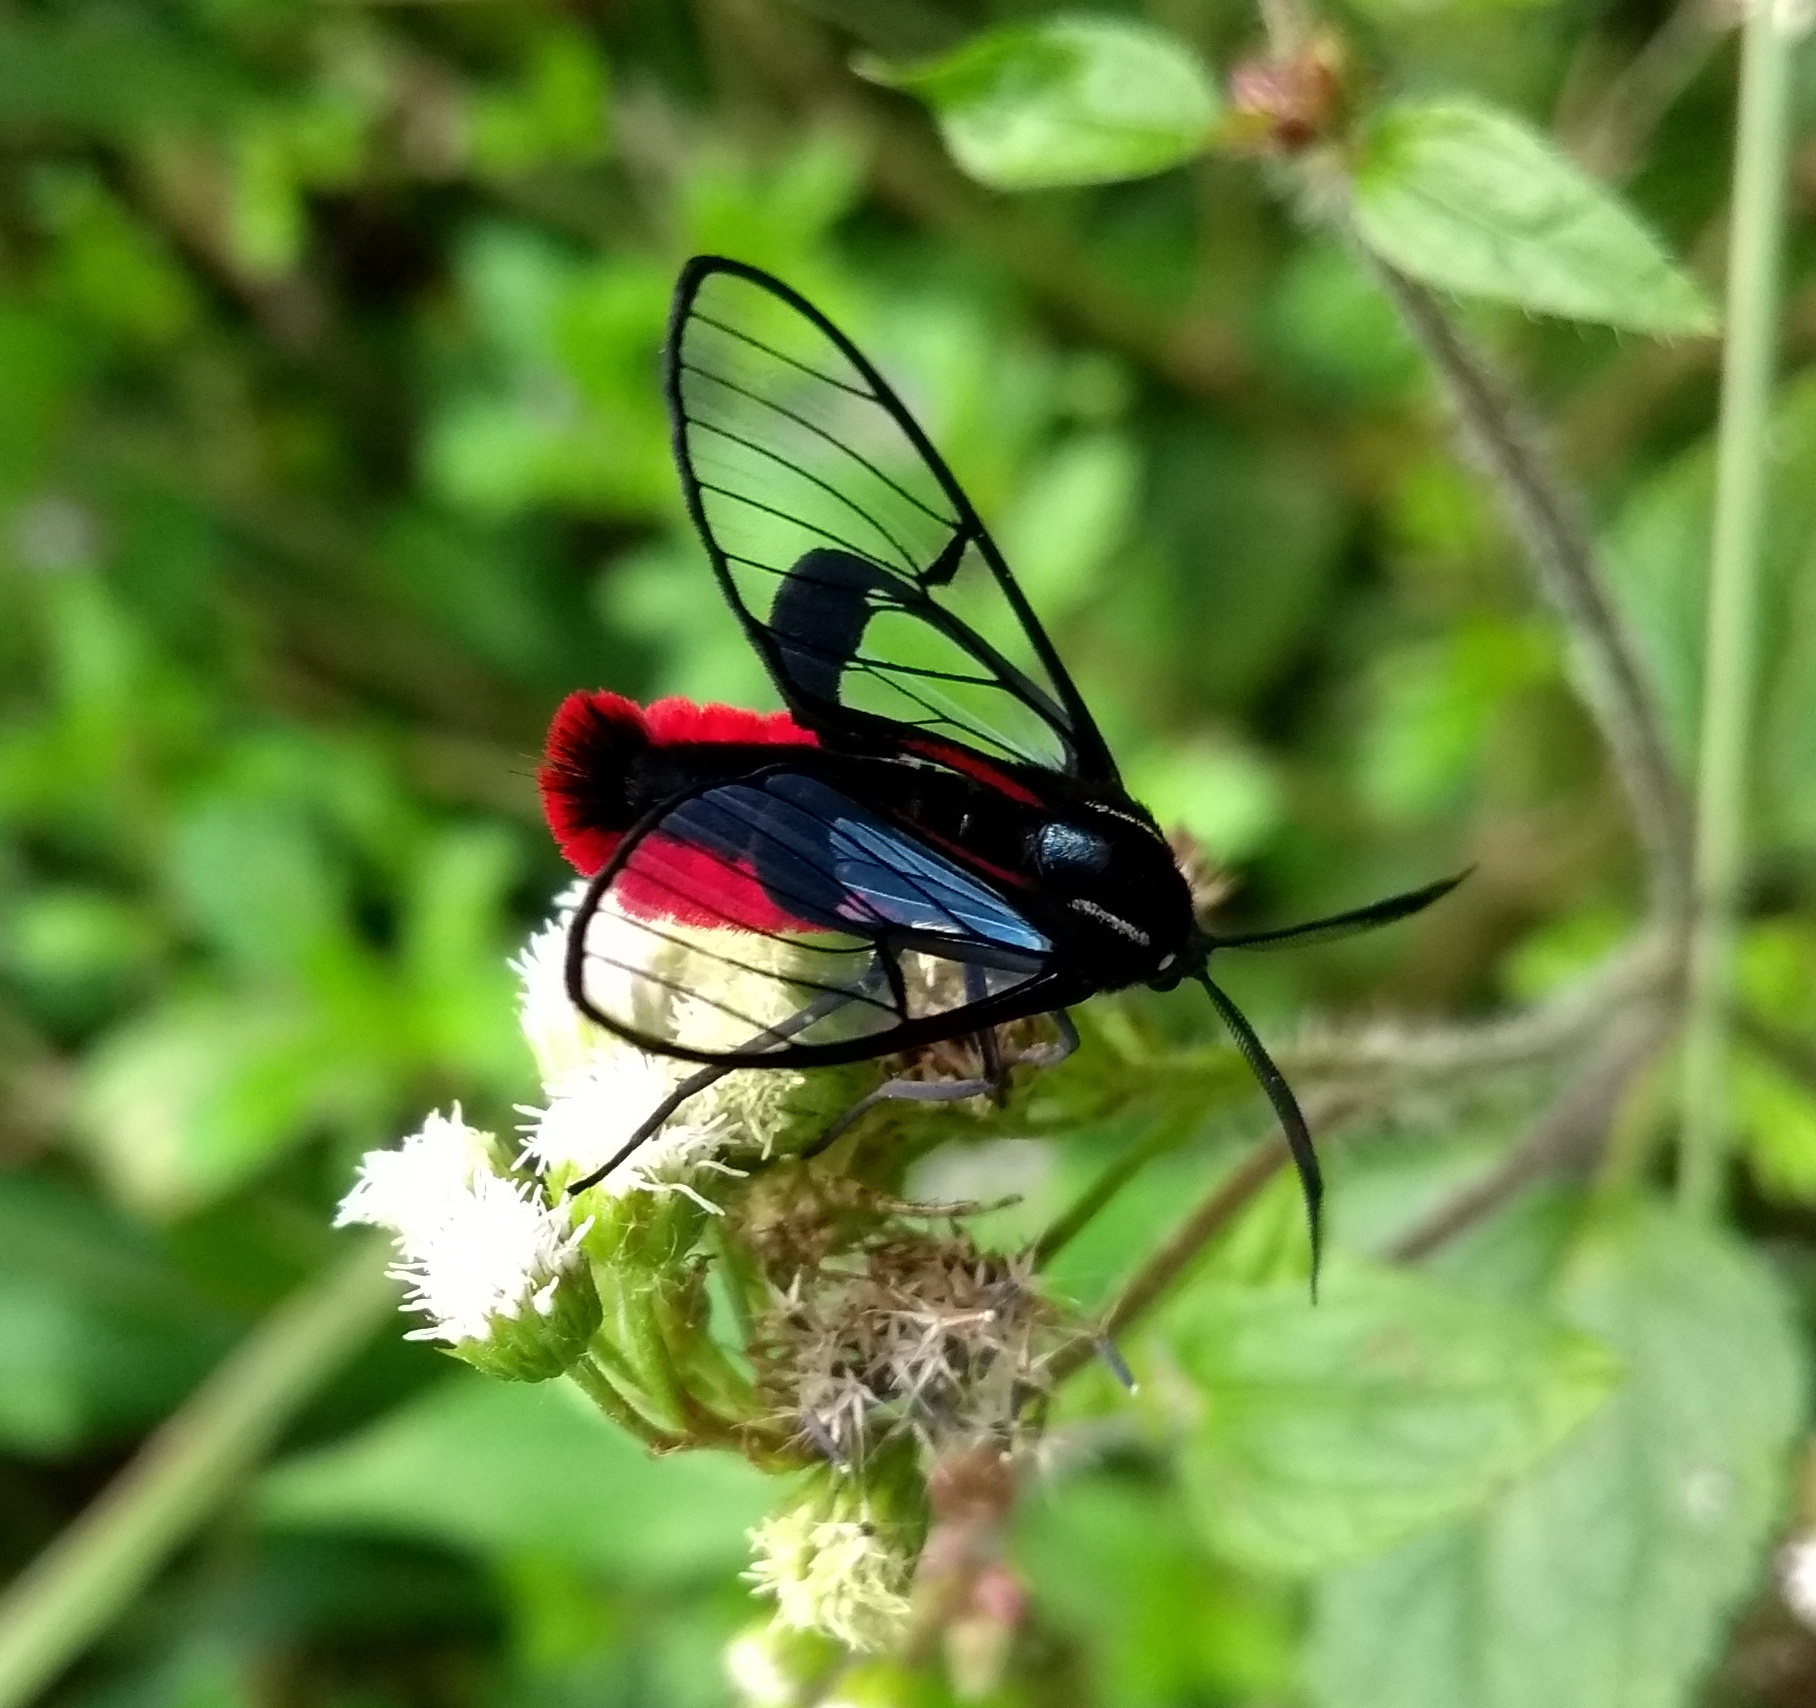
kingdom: Animalia
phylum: Arthropoda
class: Insecta
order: Lepidoptera
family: Erebidae
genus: Dinia
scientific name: Dinia eagrus
